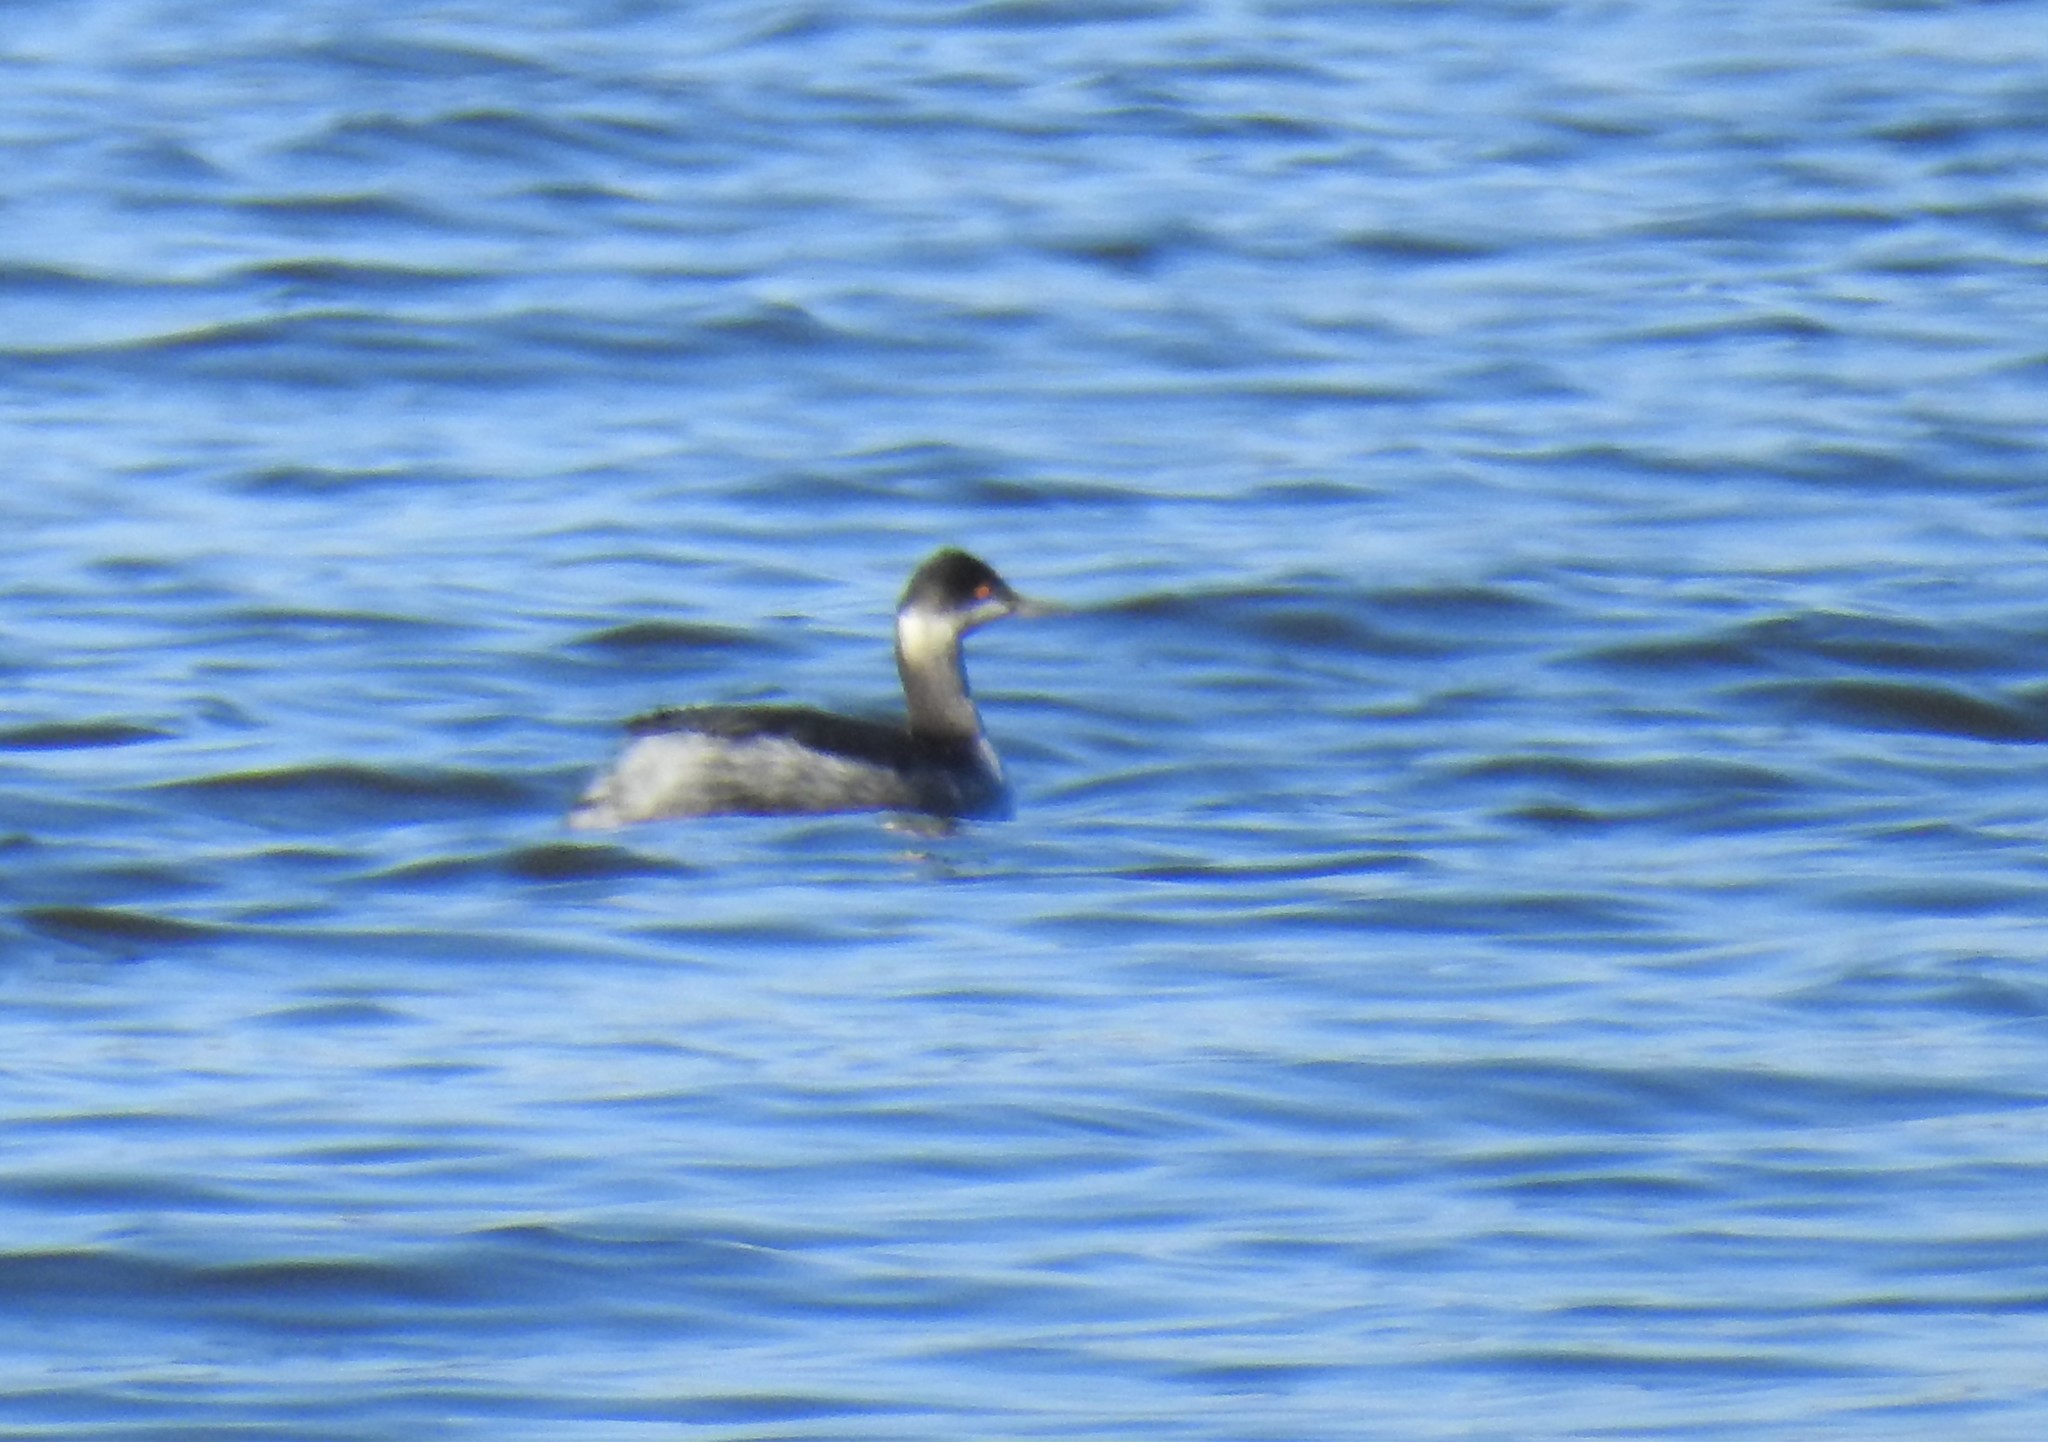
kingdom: Animalia
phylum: Chordata
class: Aves
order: Podicipediformes
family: Podicipedidae
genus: Podiceps
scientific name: Podiceps nigricollis
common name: Black-necked grebe
